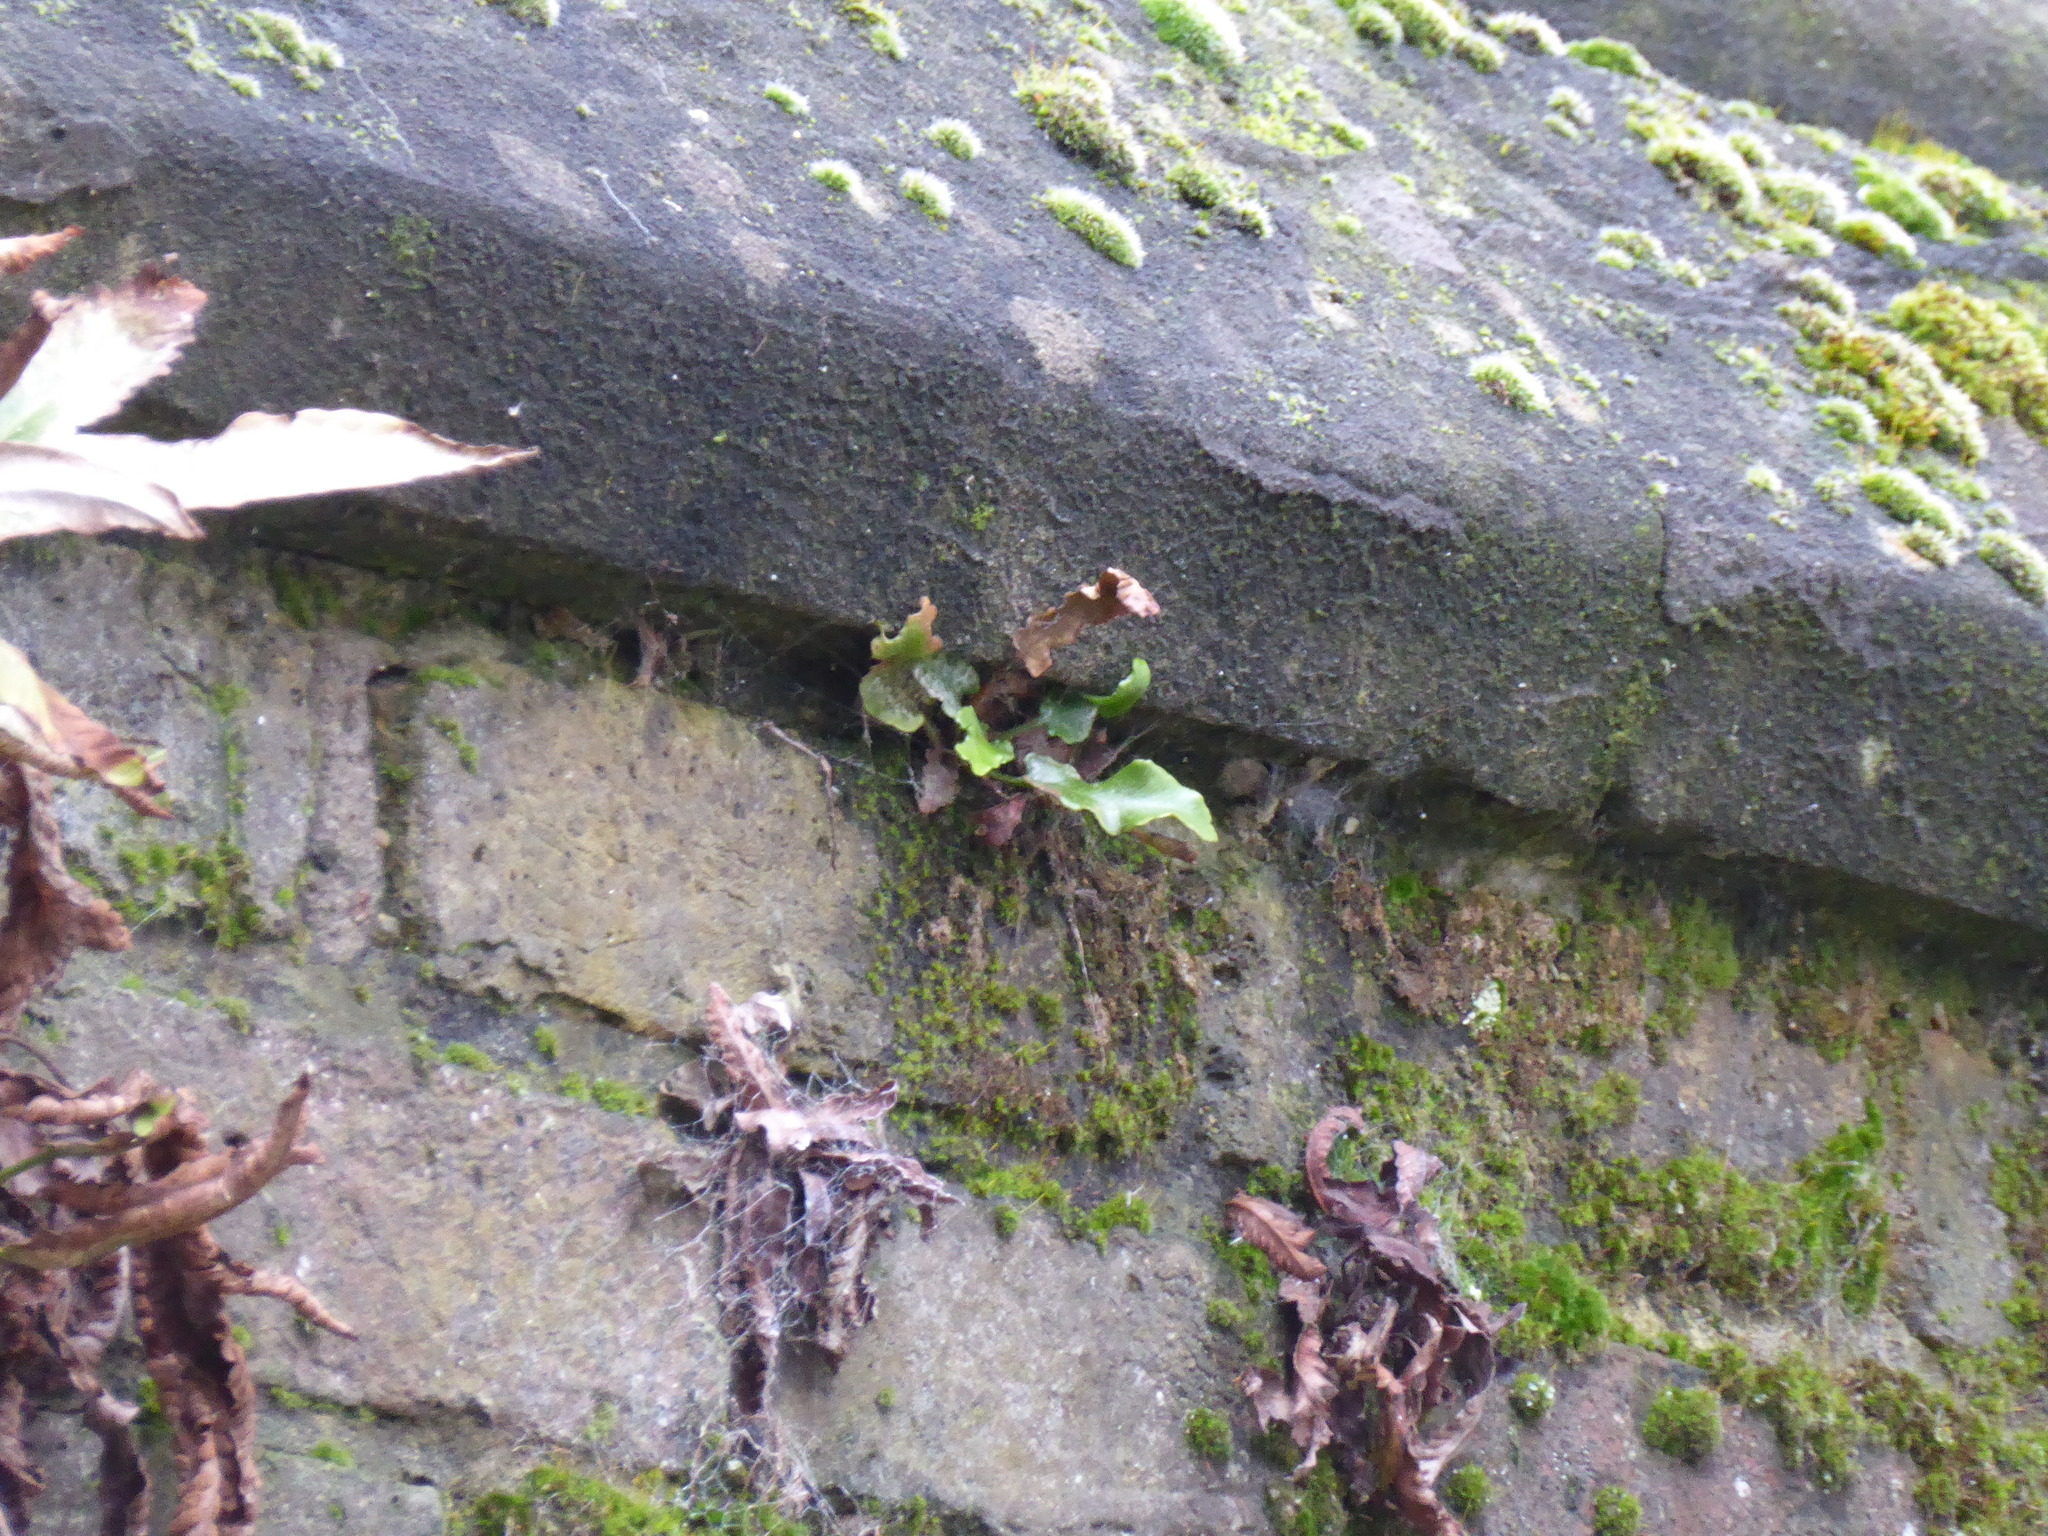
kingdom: Plantae
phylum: Tracheophyta
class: Polypodiopsida
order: Polypodiales
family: Aspleniaceae
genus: Asplenium
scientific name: Asplenium scolopendrium
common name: Hart's-tongue fern
